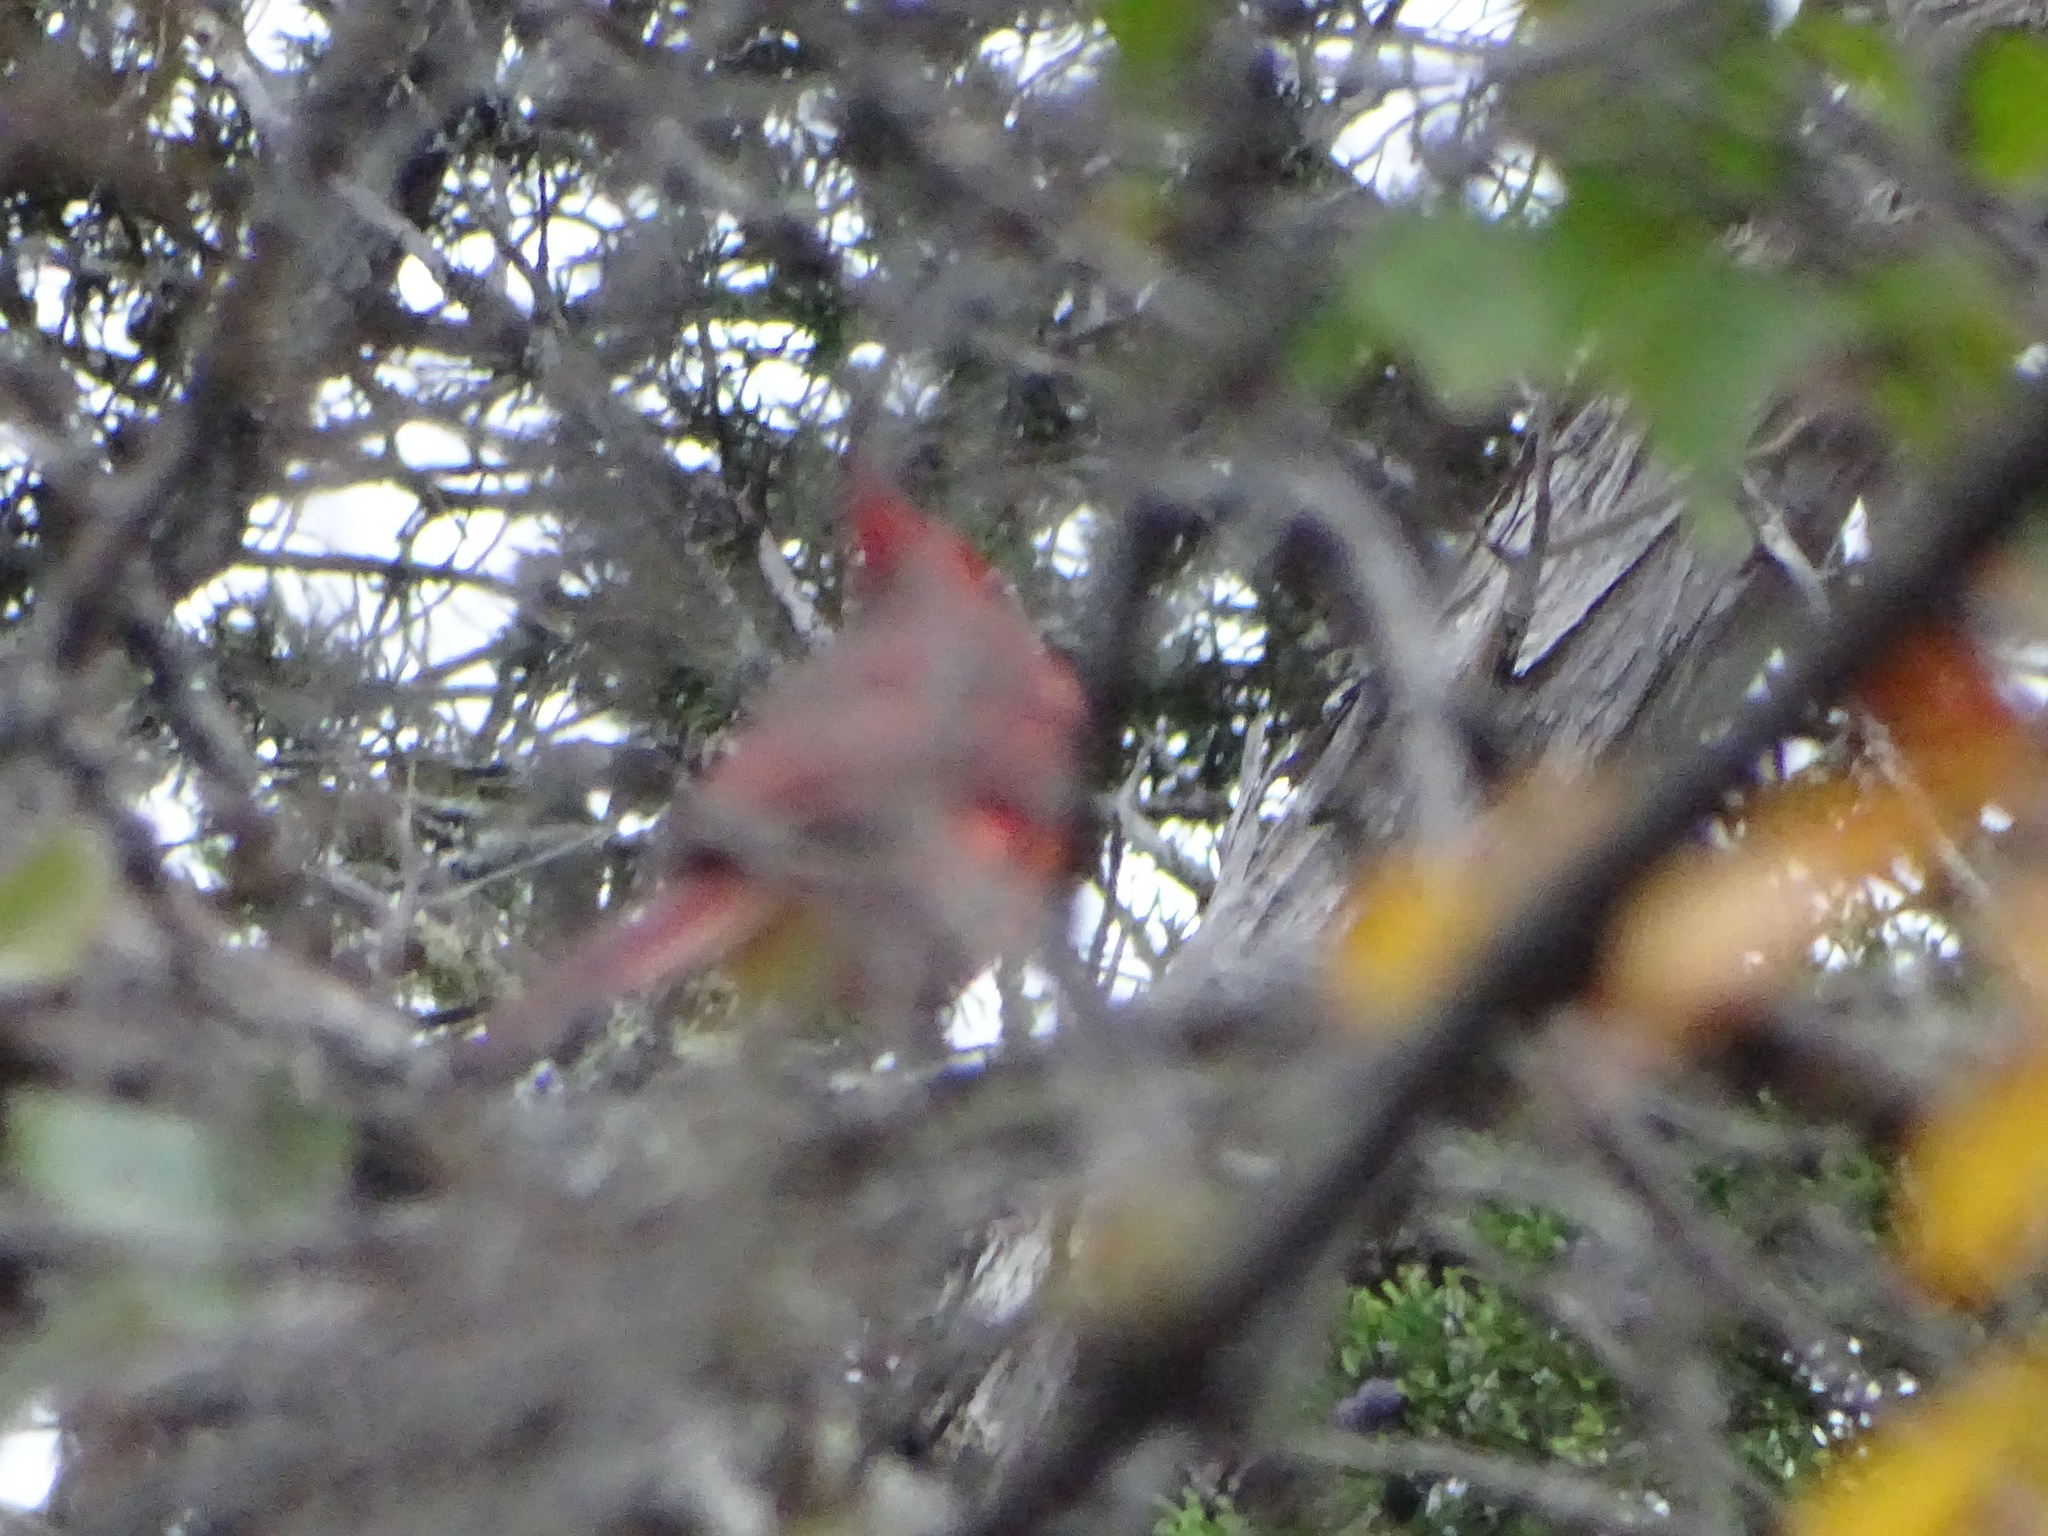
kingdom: Animalia
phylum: Chordata
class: Aves
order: Passeriformes
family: Cardinalidae
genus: Cardinalis
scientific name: Cardinalis cardinalis
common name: Northern cardinal
